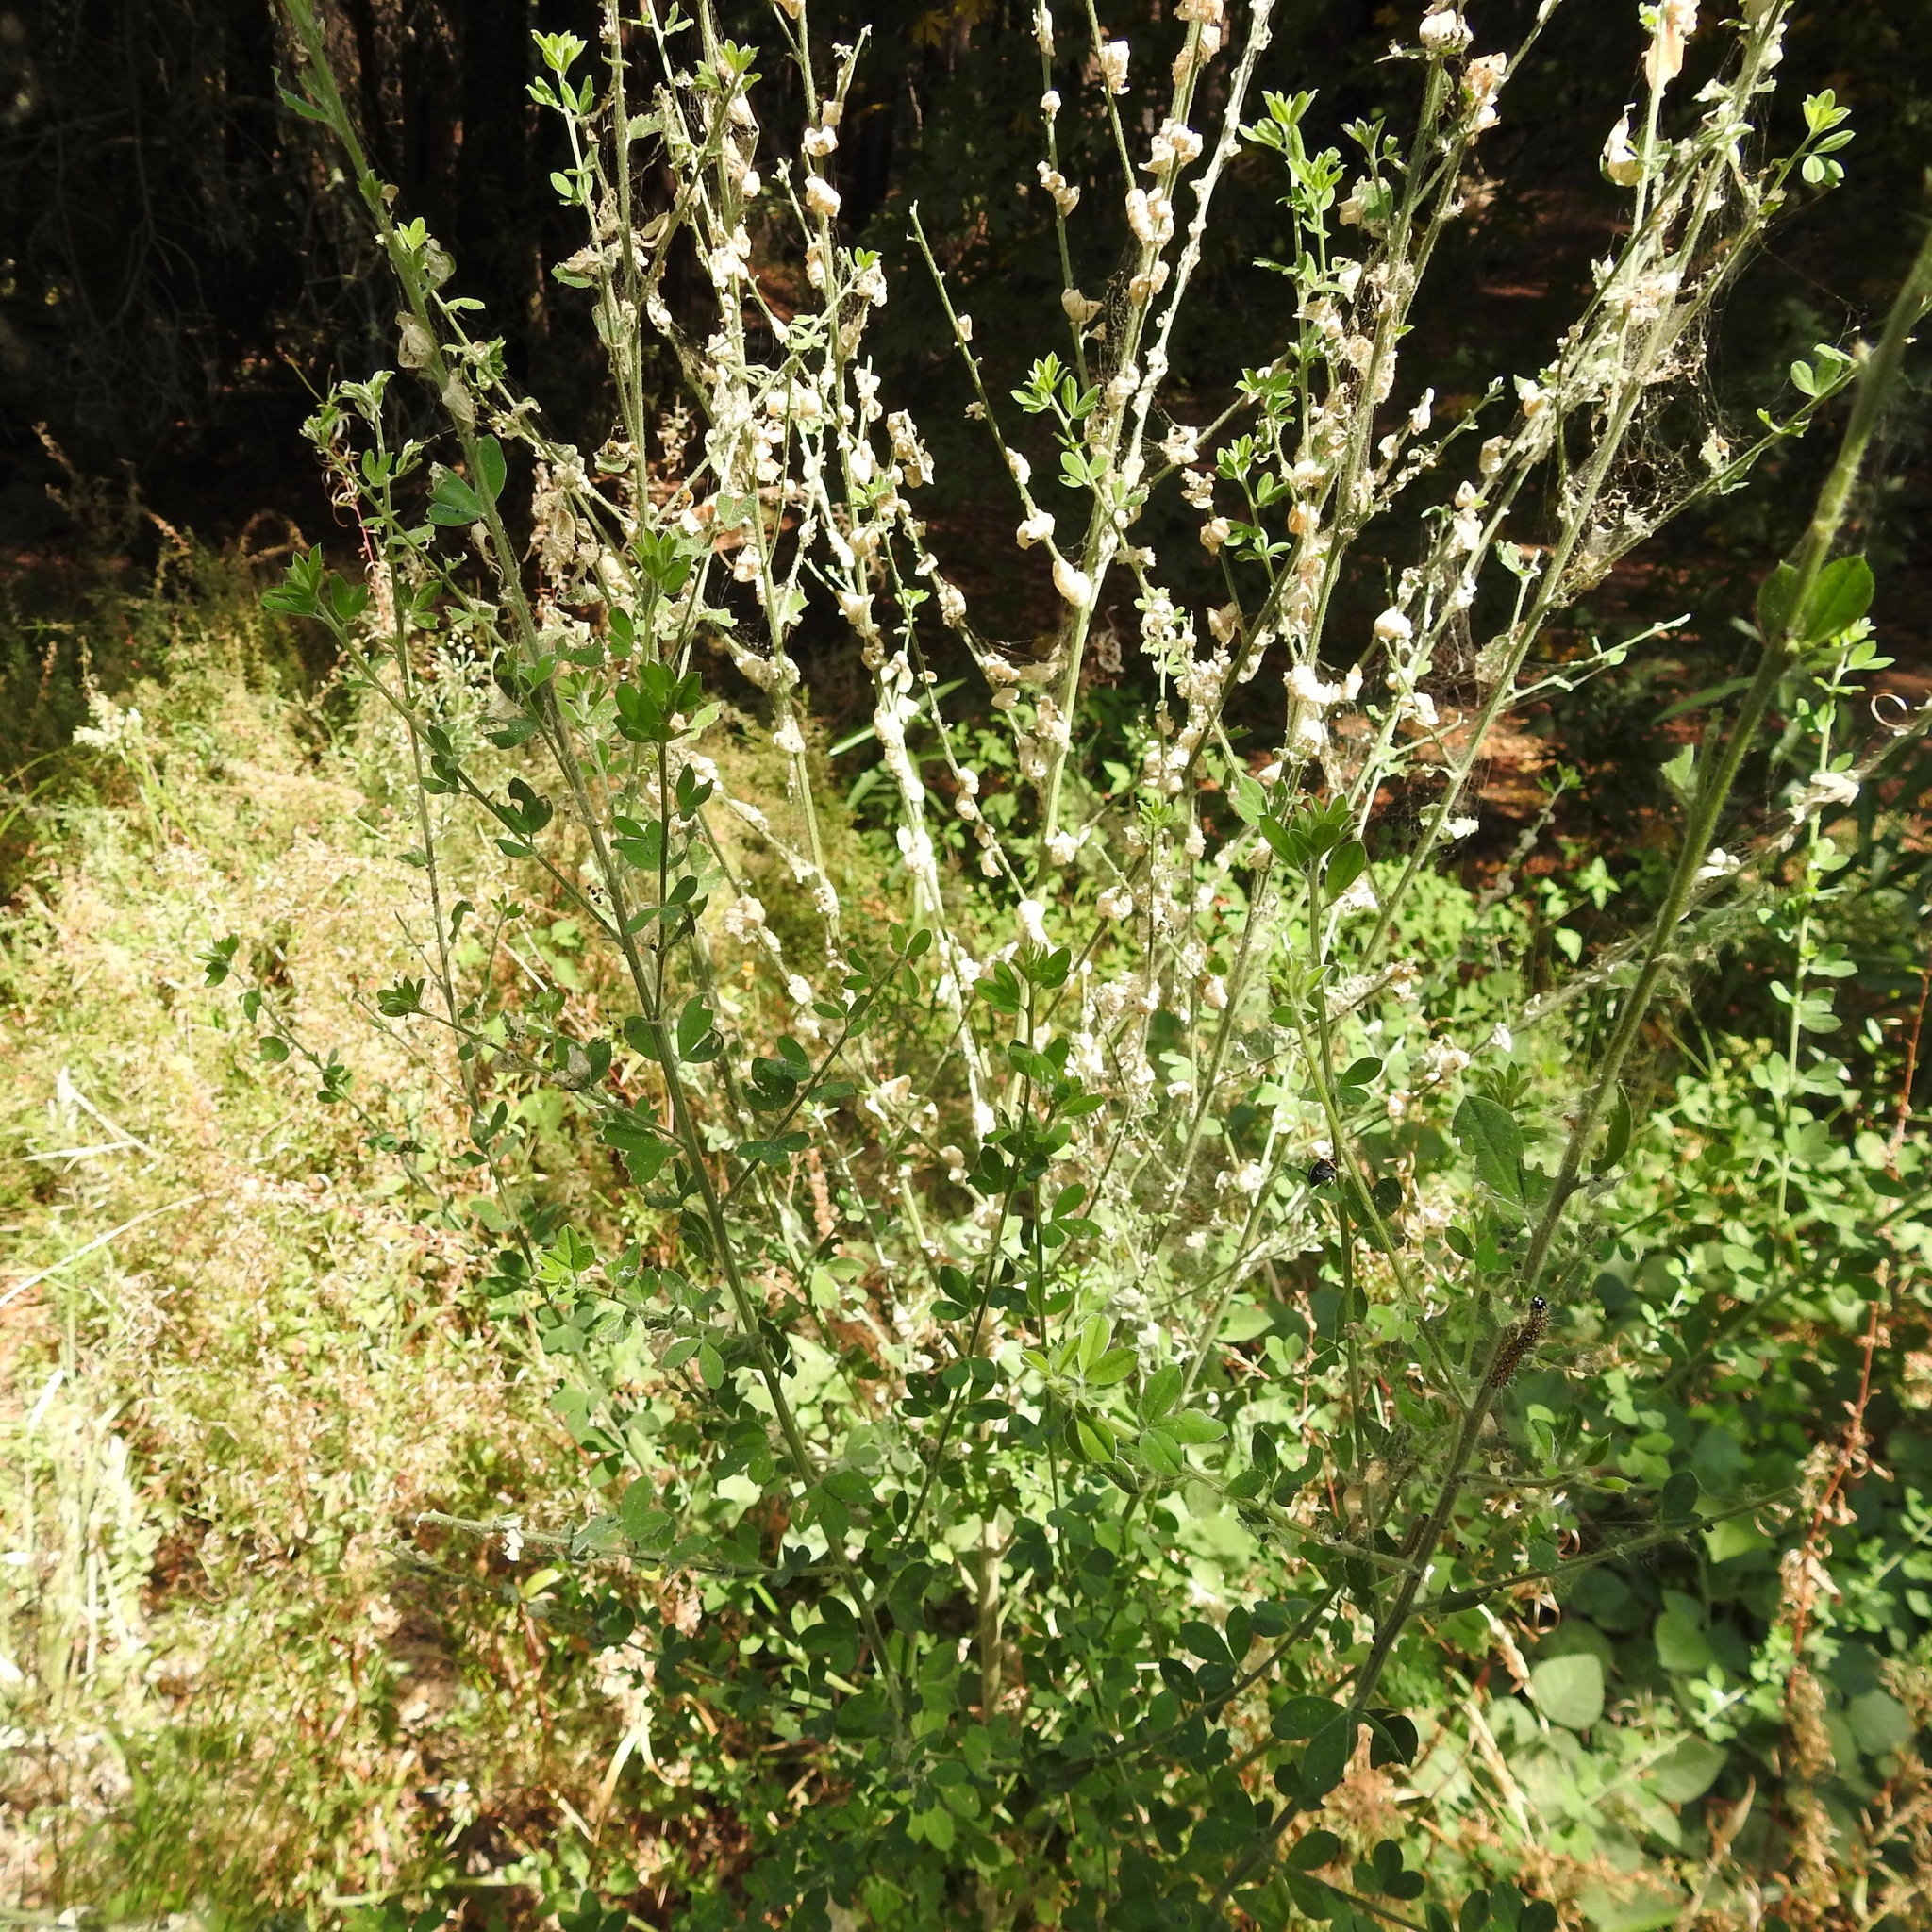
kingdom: Animalia
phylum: Arthropoda
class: Insecta
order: Lepidoptera
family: Crambidae
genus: Uresiphita
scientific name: Uresiphita reversalis
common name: Genista broom moth
